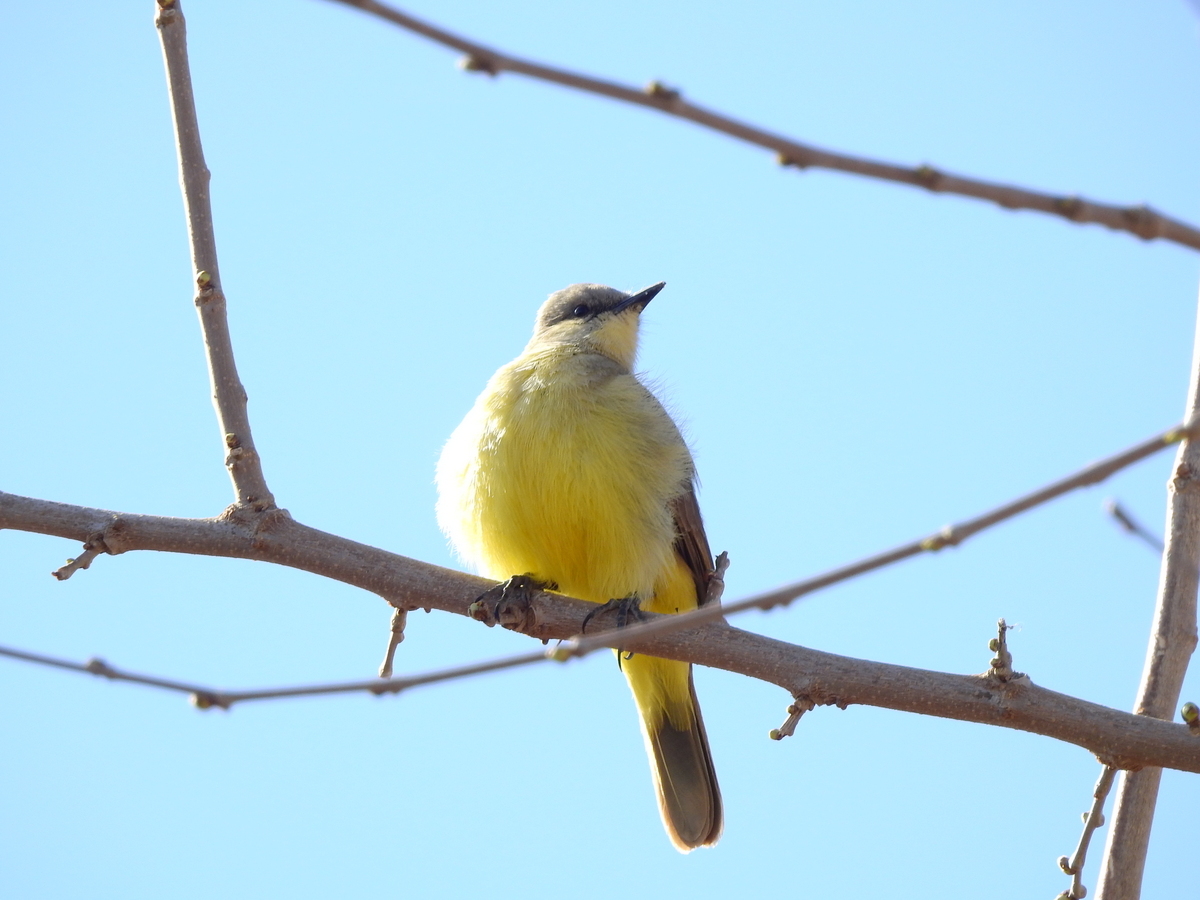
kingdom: Animalia
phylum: Chordata
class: Aves
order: Passeriformes
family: Tyrannidae
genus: Machetornis
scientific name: Machetornis rixosa
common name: Cattle tyrant
